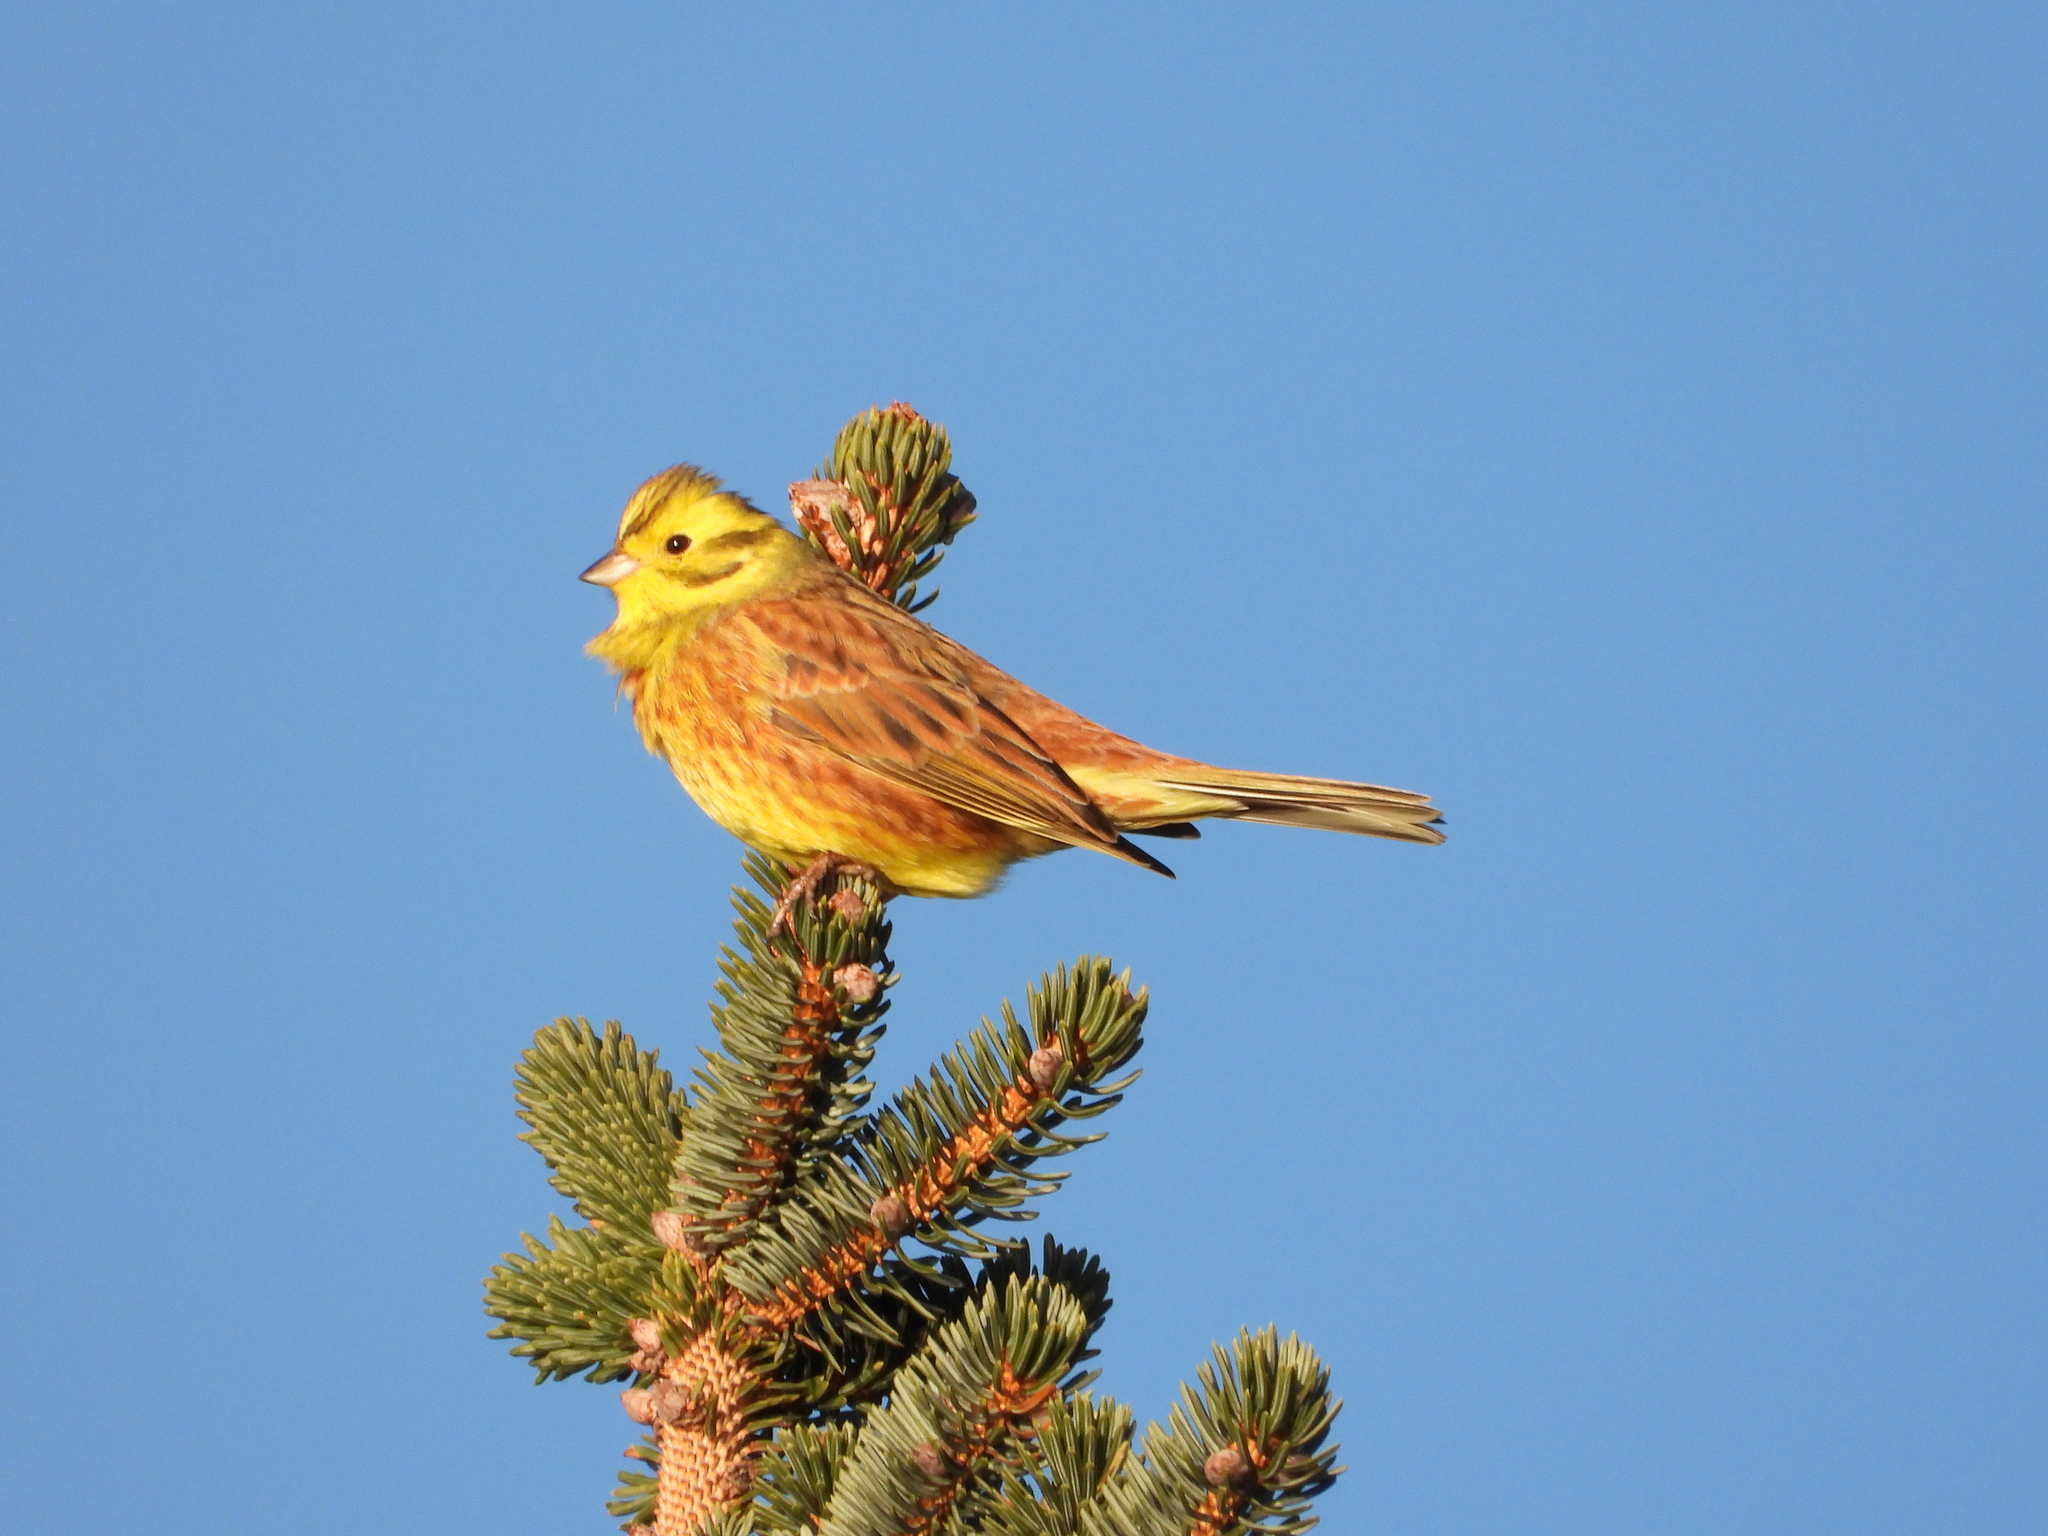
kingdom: Animalia
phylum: Chordata
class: Aves
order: Passeriformes
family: Emberizidae
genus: Emberiza
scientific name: Emberiza citrinella
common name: Yellowhammer
